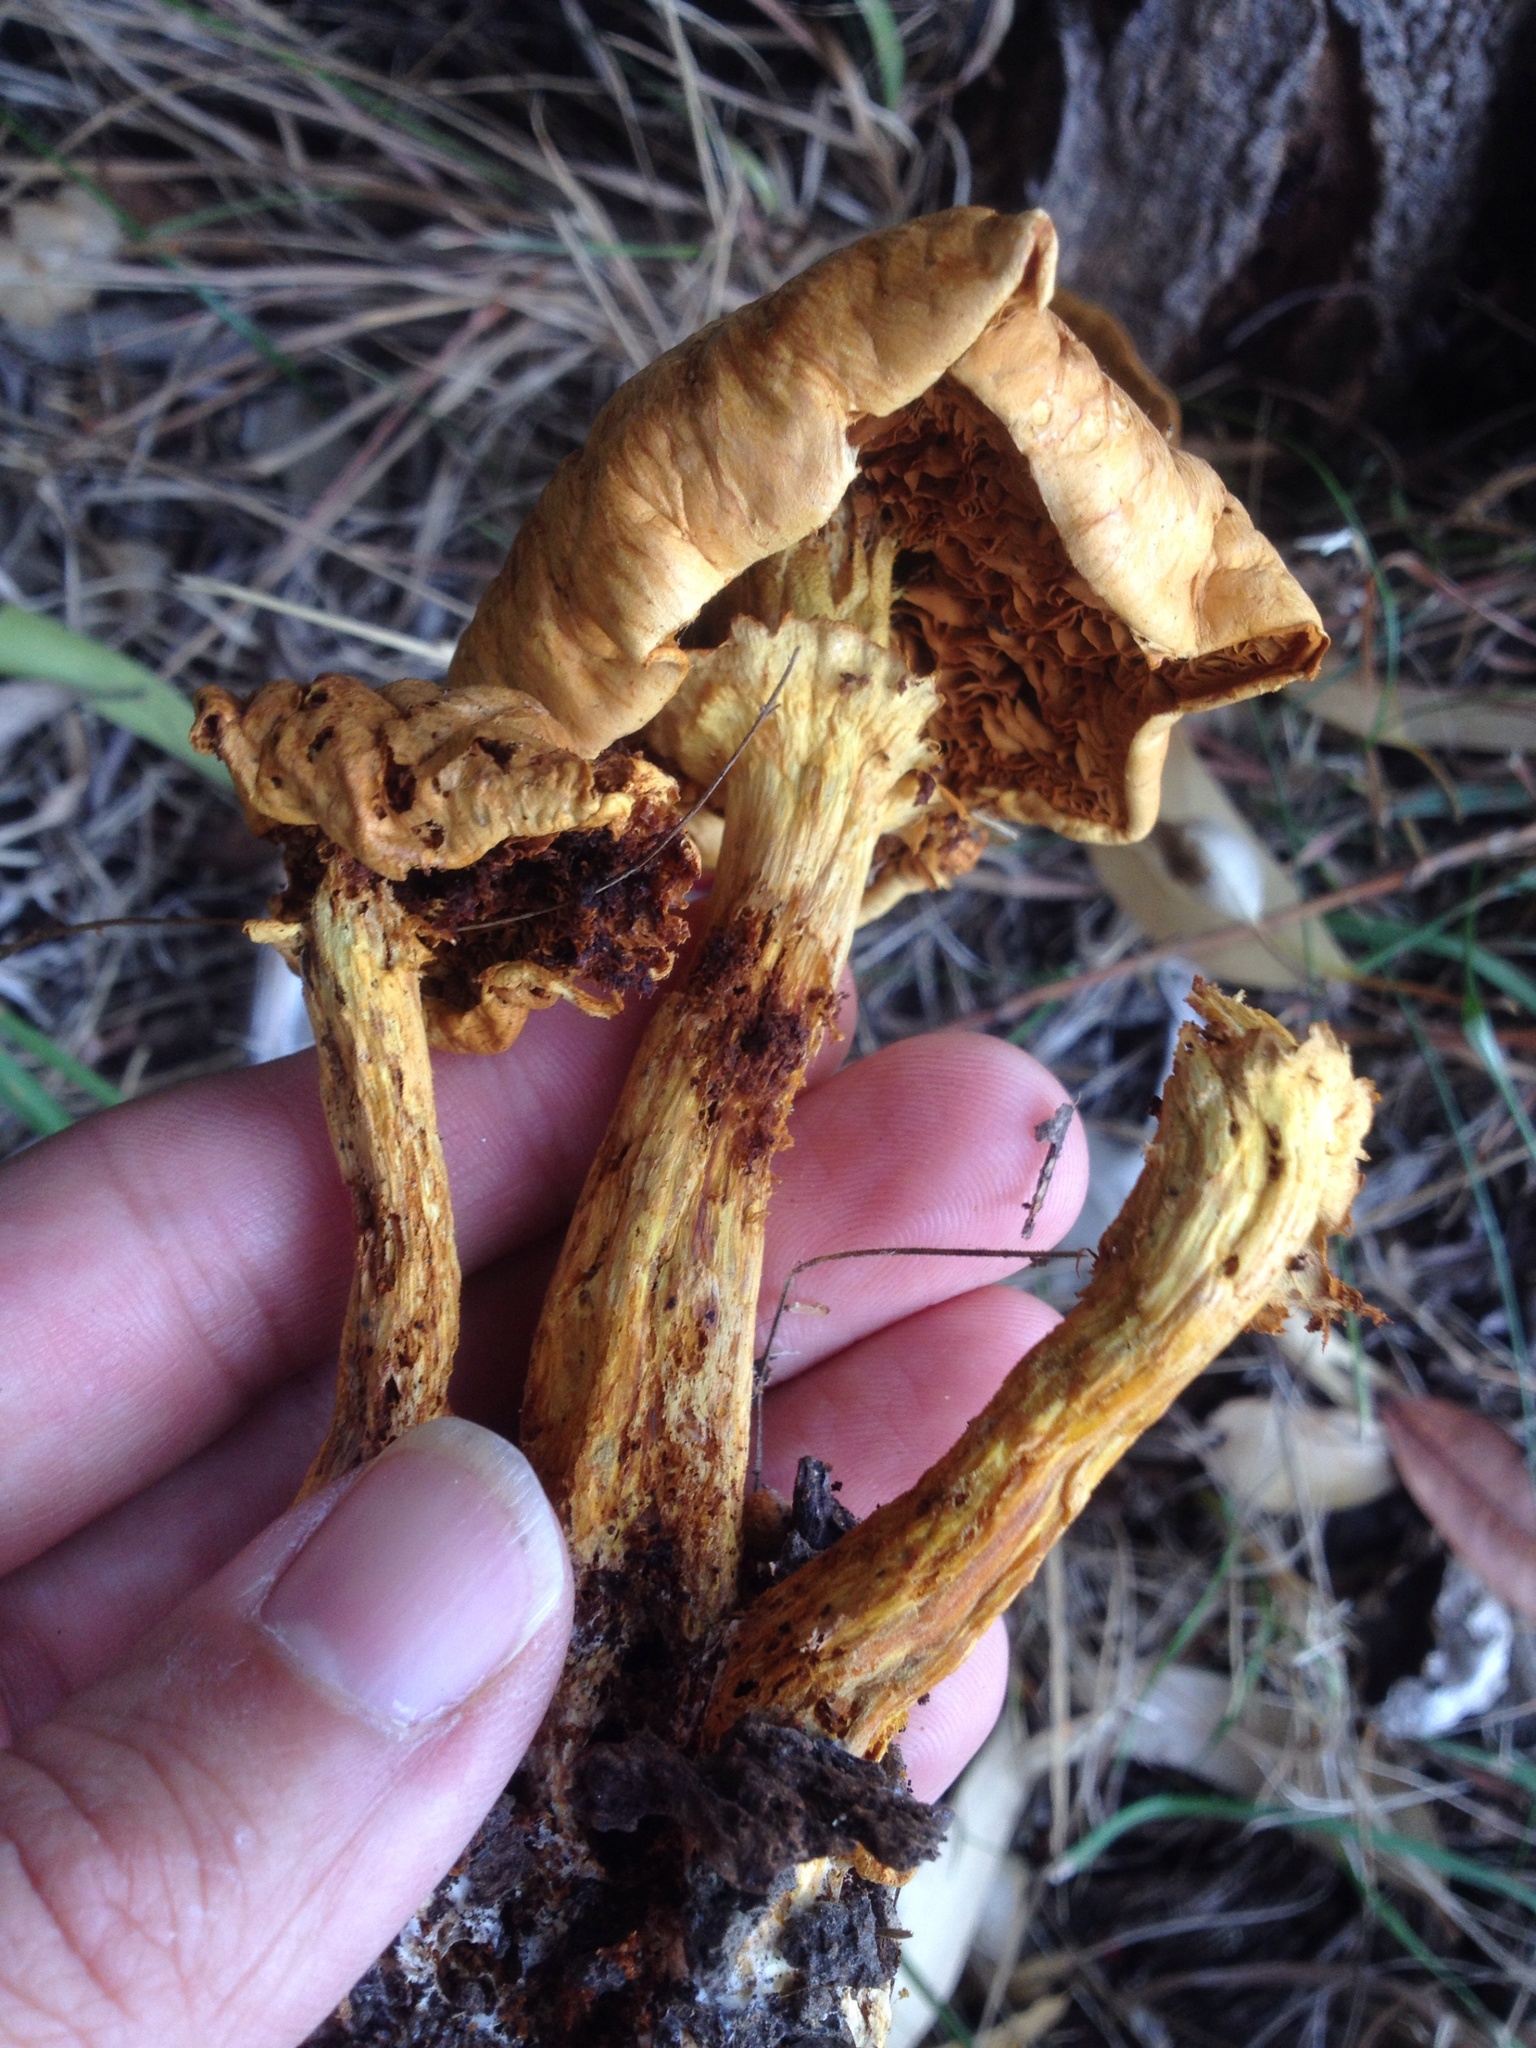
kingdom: Fungi
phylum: Basidiomycota
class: Agaricomycetes
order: Agaricales
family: Hymenogastraceae
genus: Gymnopilus
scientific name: Gymnopilus
